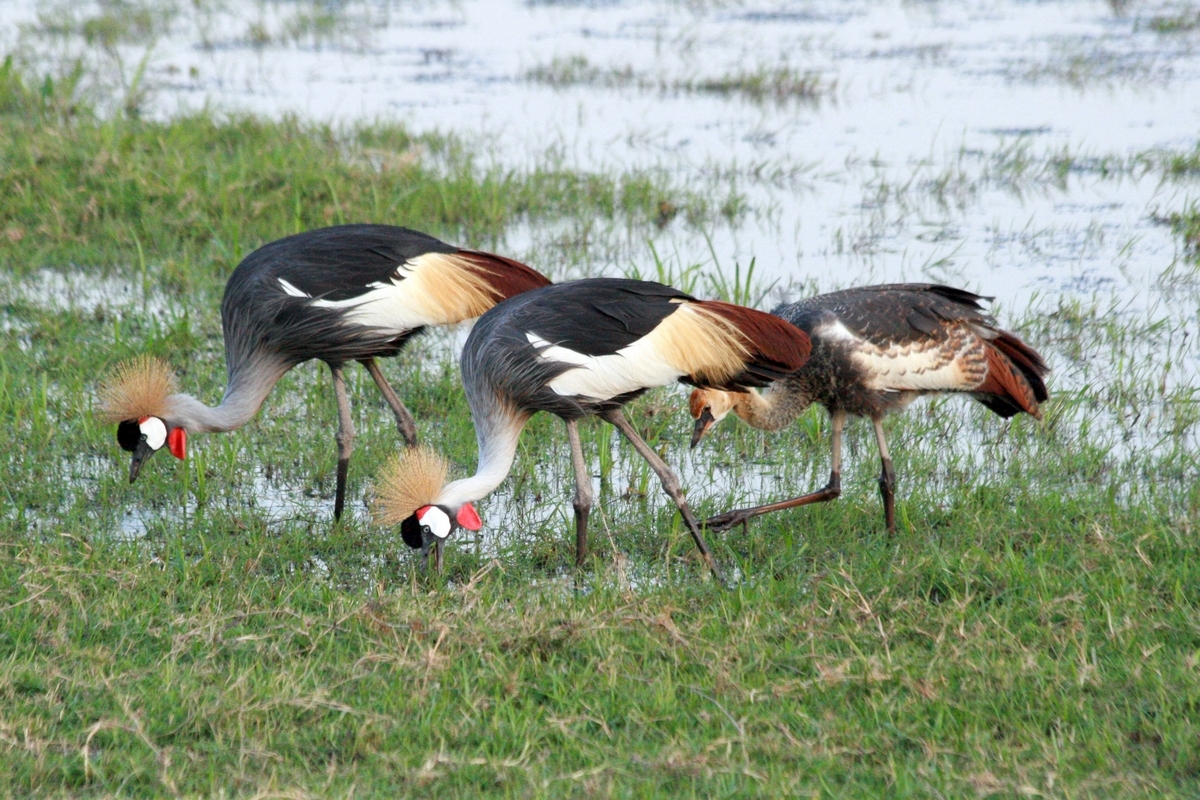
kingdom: Animalia
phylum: Chordata
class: Aves
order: Gruiformes
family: Gruidae
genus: Balearica
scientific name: Balearica regulorum
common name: Grey crowned crane
